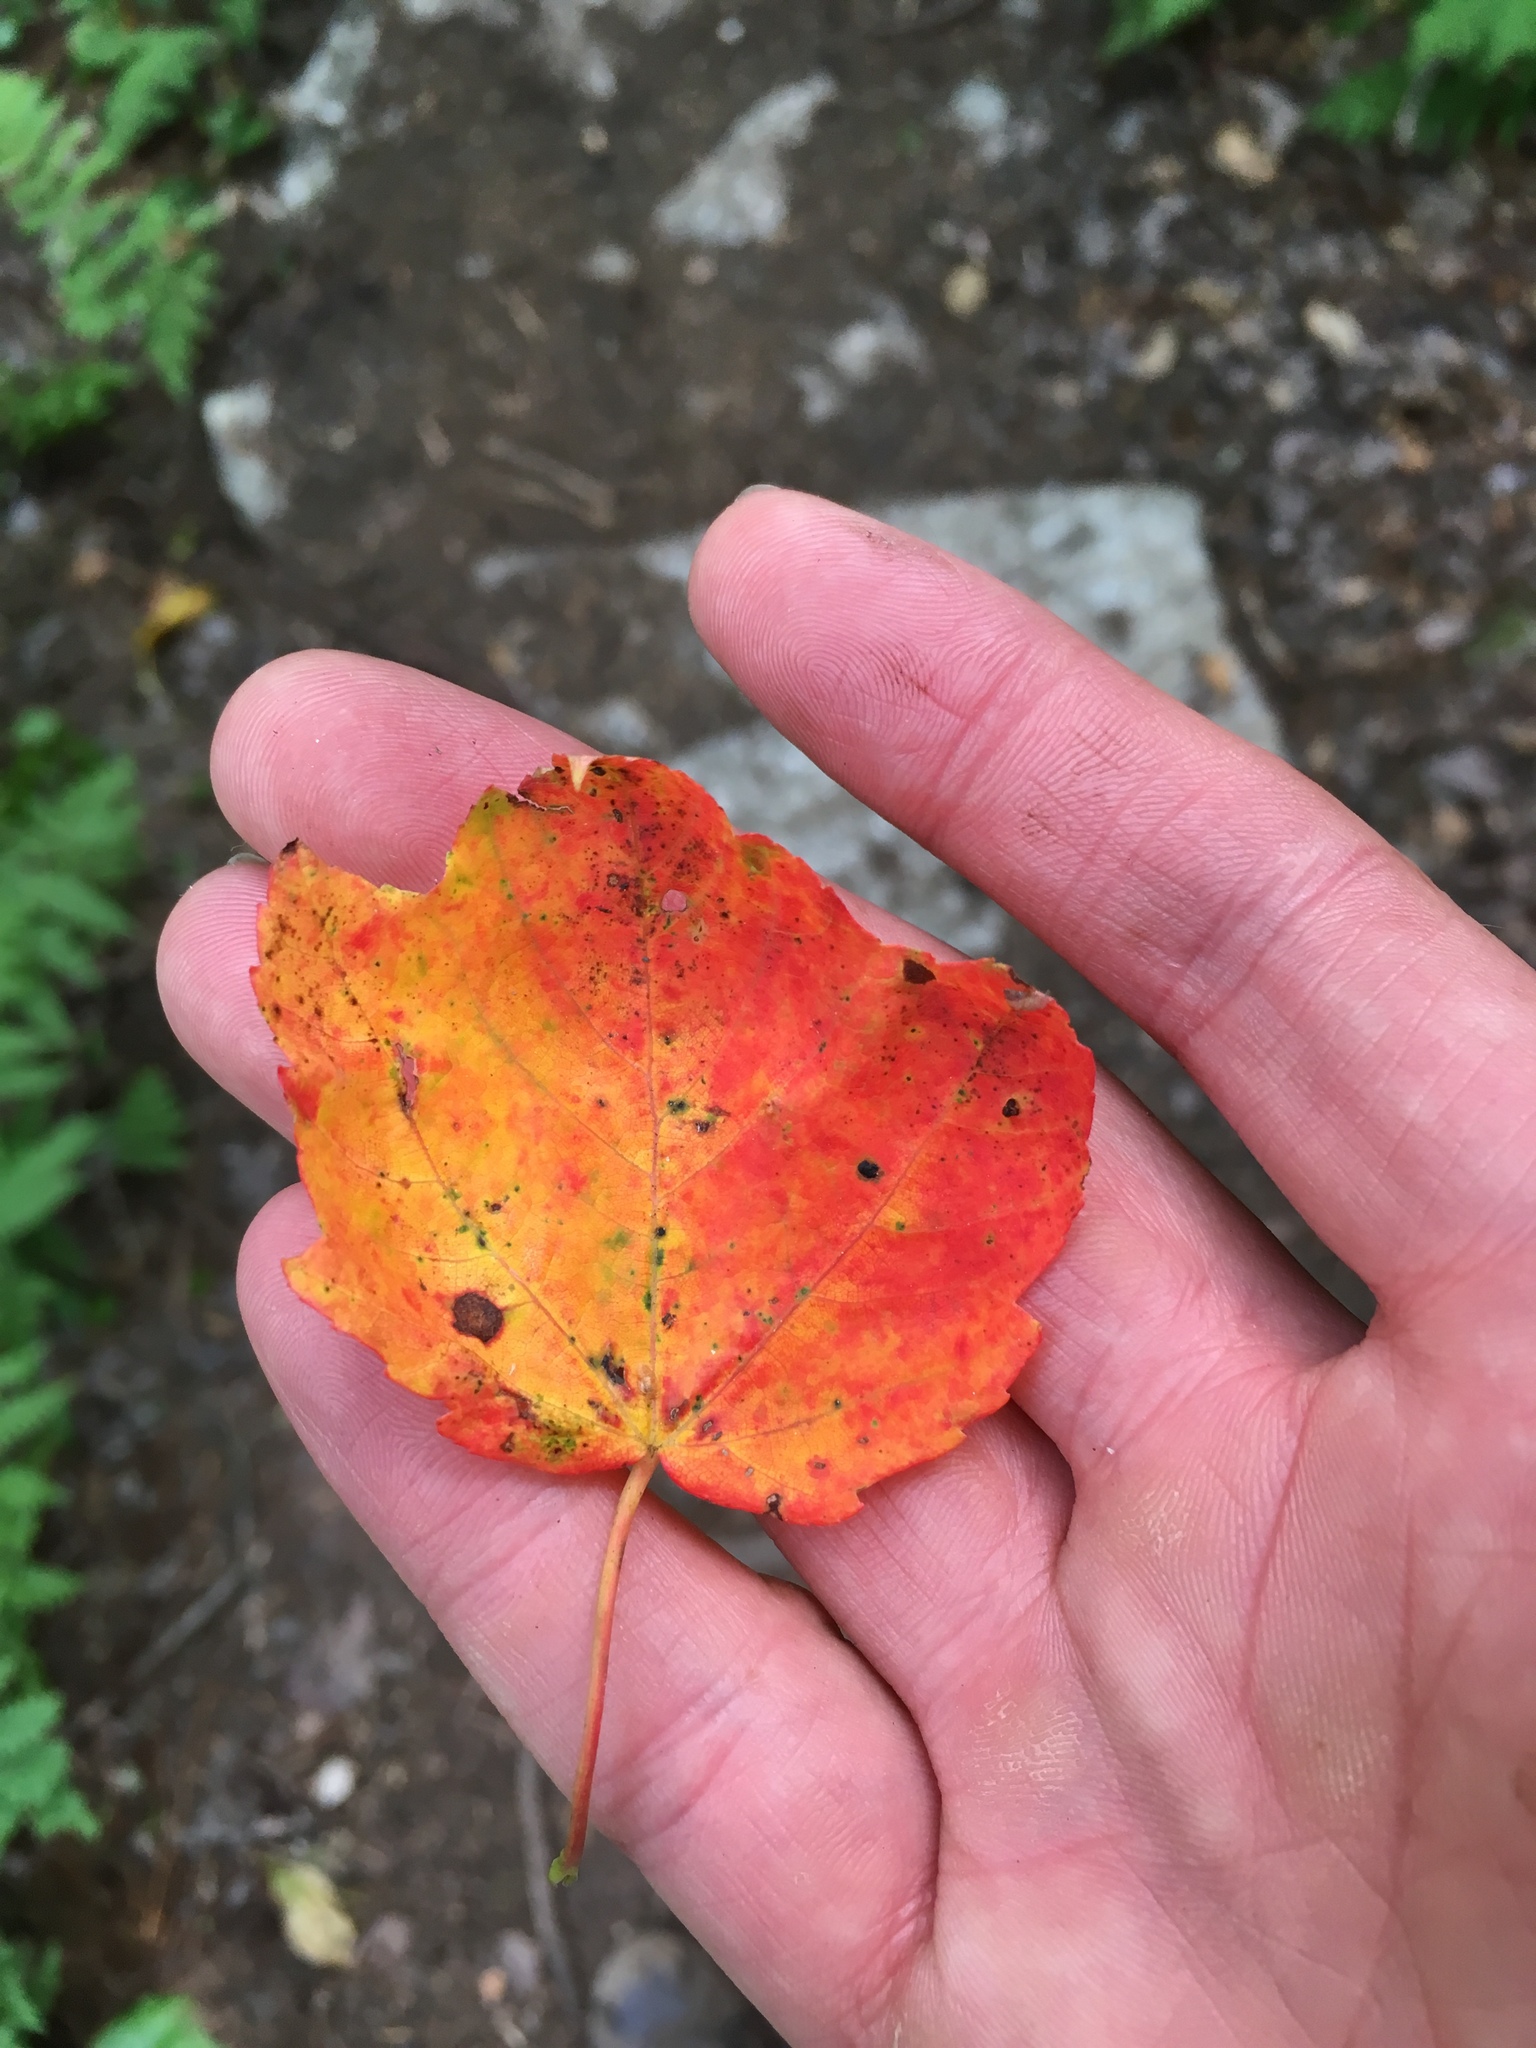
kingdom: Plantae
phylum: Tracheophyta
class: Magnoliopsida
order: Sapindales
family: Sapindaceae
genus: Acer
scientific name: Acer rubrum
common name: Red maple
